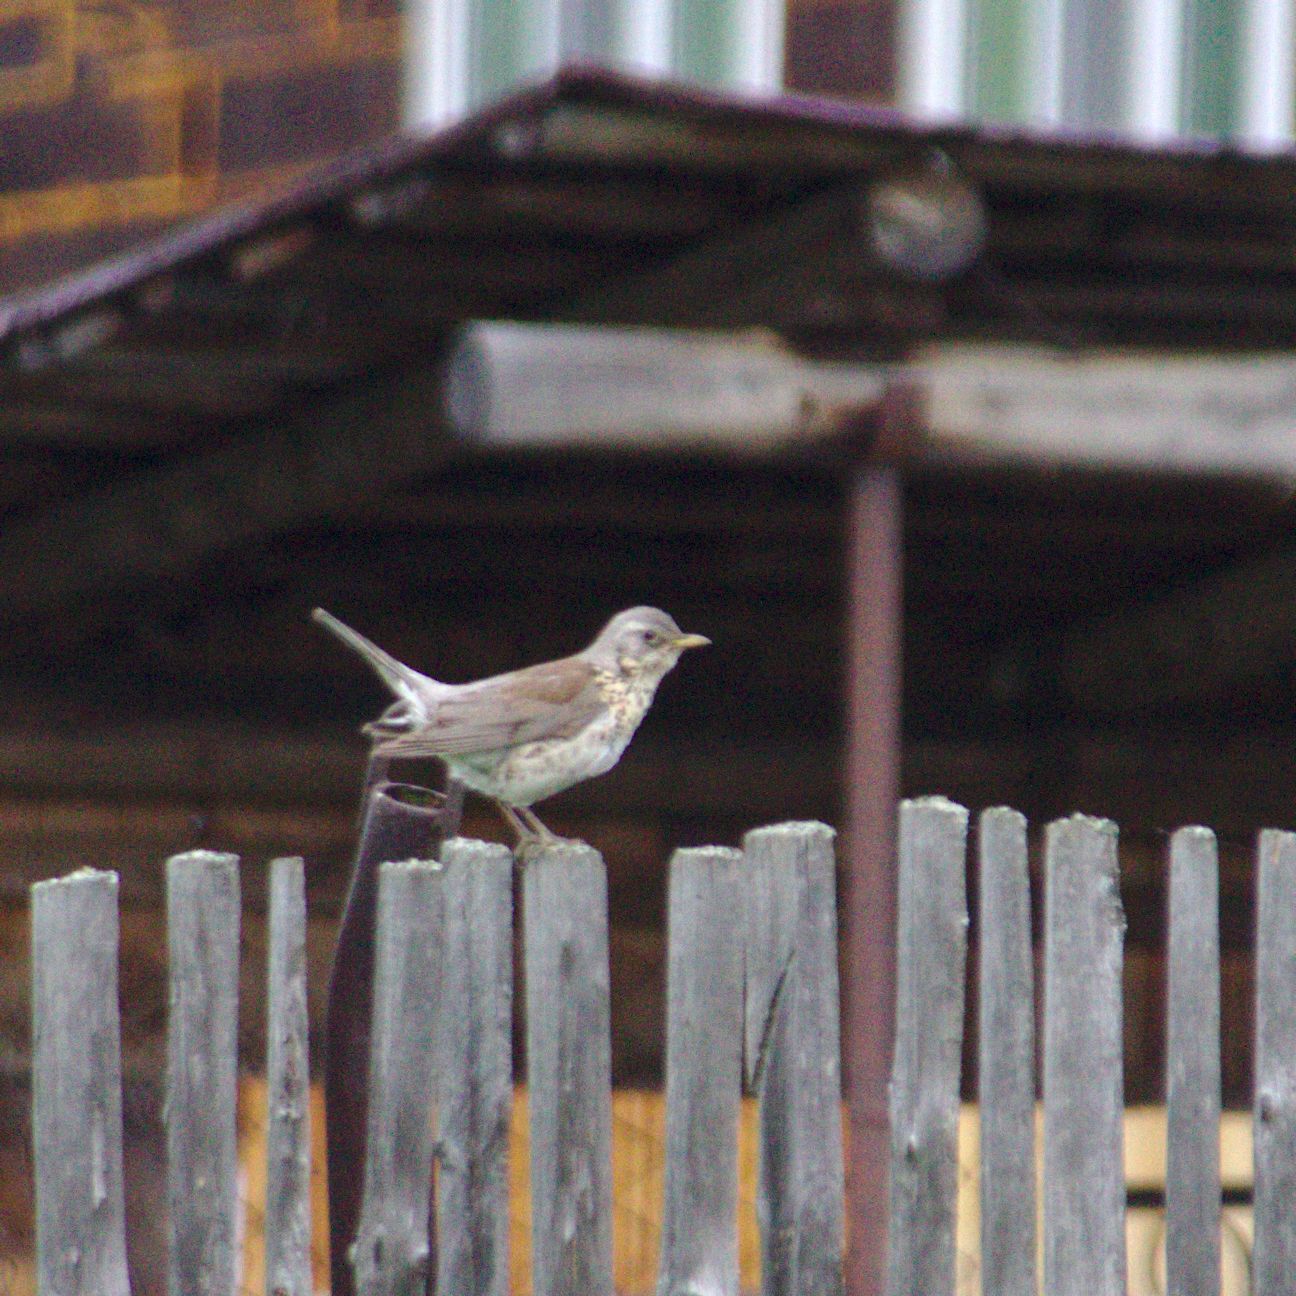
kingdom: Animalia
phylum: Chordata
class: Aves
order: Passeriformes
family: Turdidae
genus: Turdus
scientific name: Turdus pilaris
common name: Fieldfare
